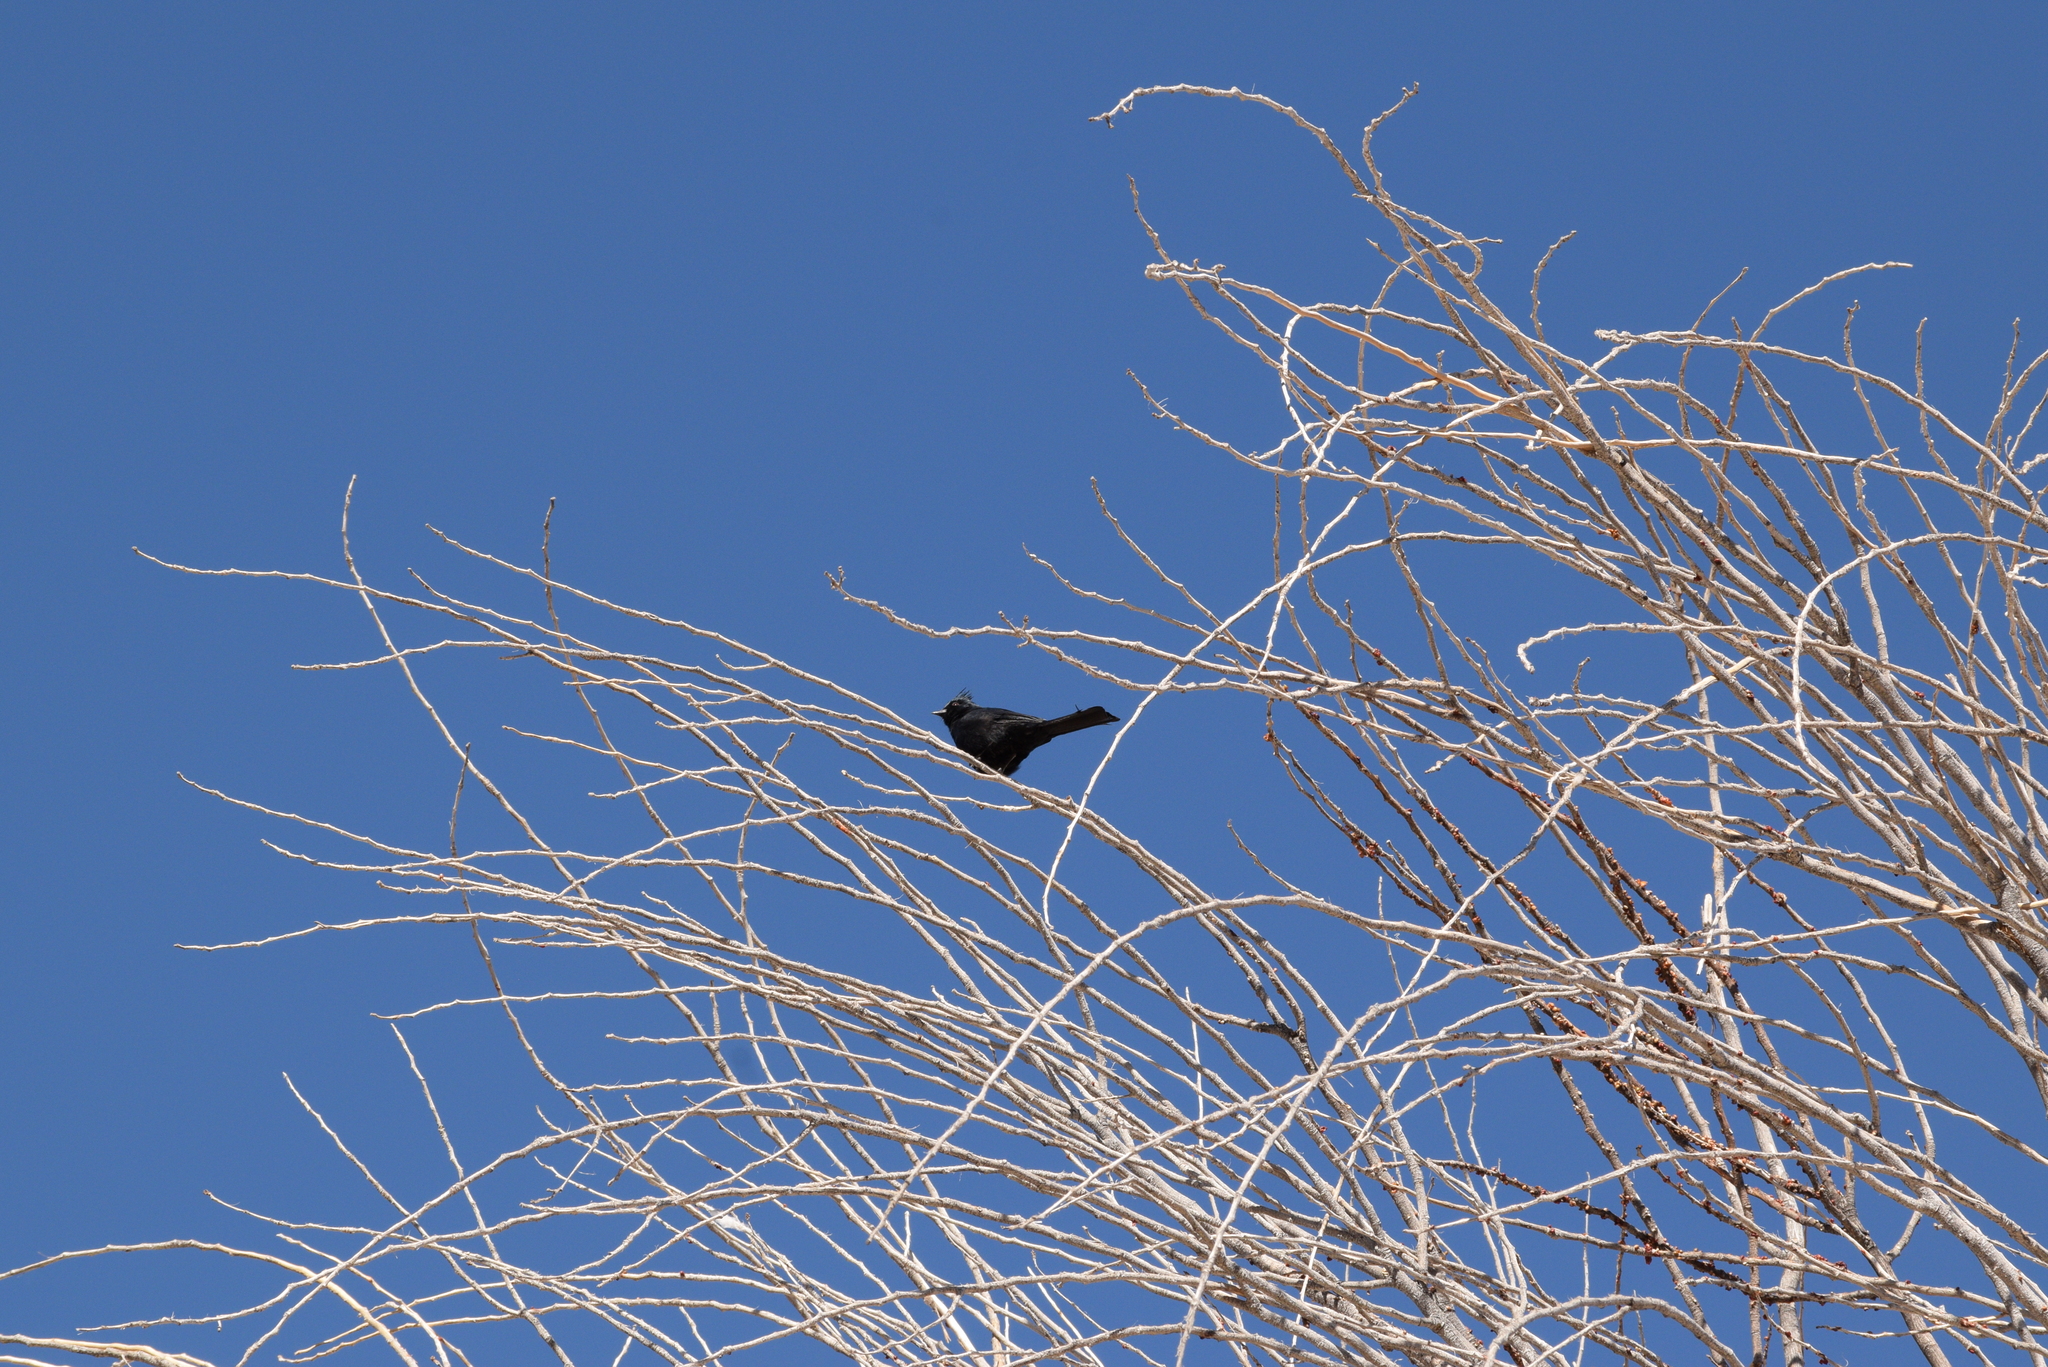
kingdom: Animalia
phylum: Chordata
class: Aves
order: Passeriformes
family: Ptilogonatidae
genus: Phainopepla
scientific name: Phainopepla nitens
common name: Phainopepla
